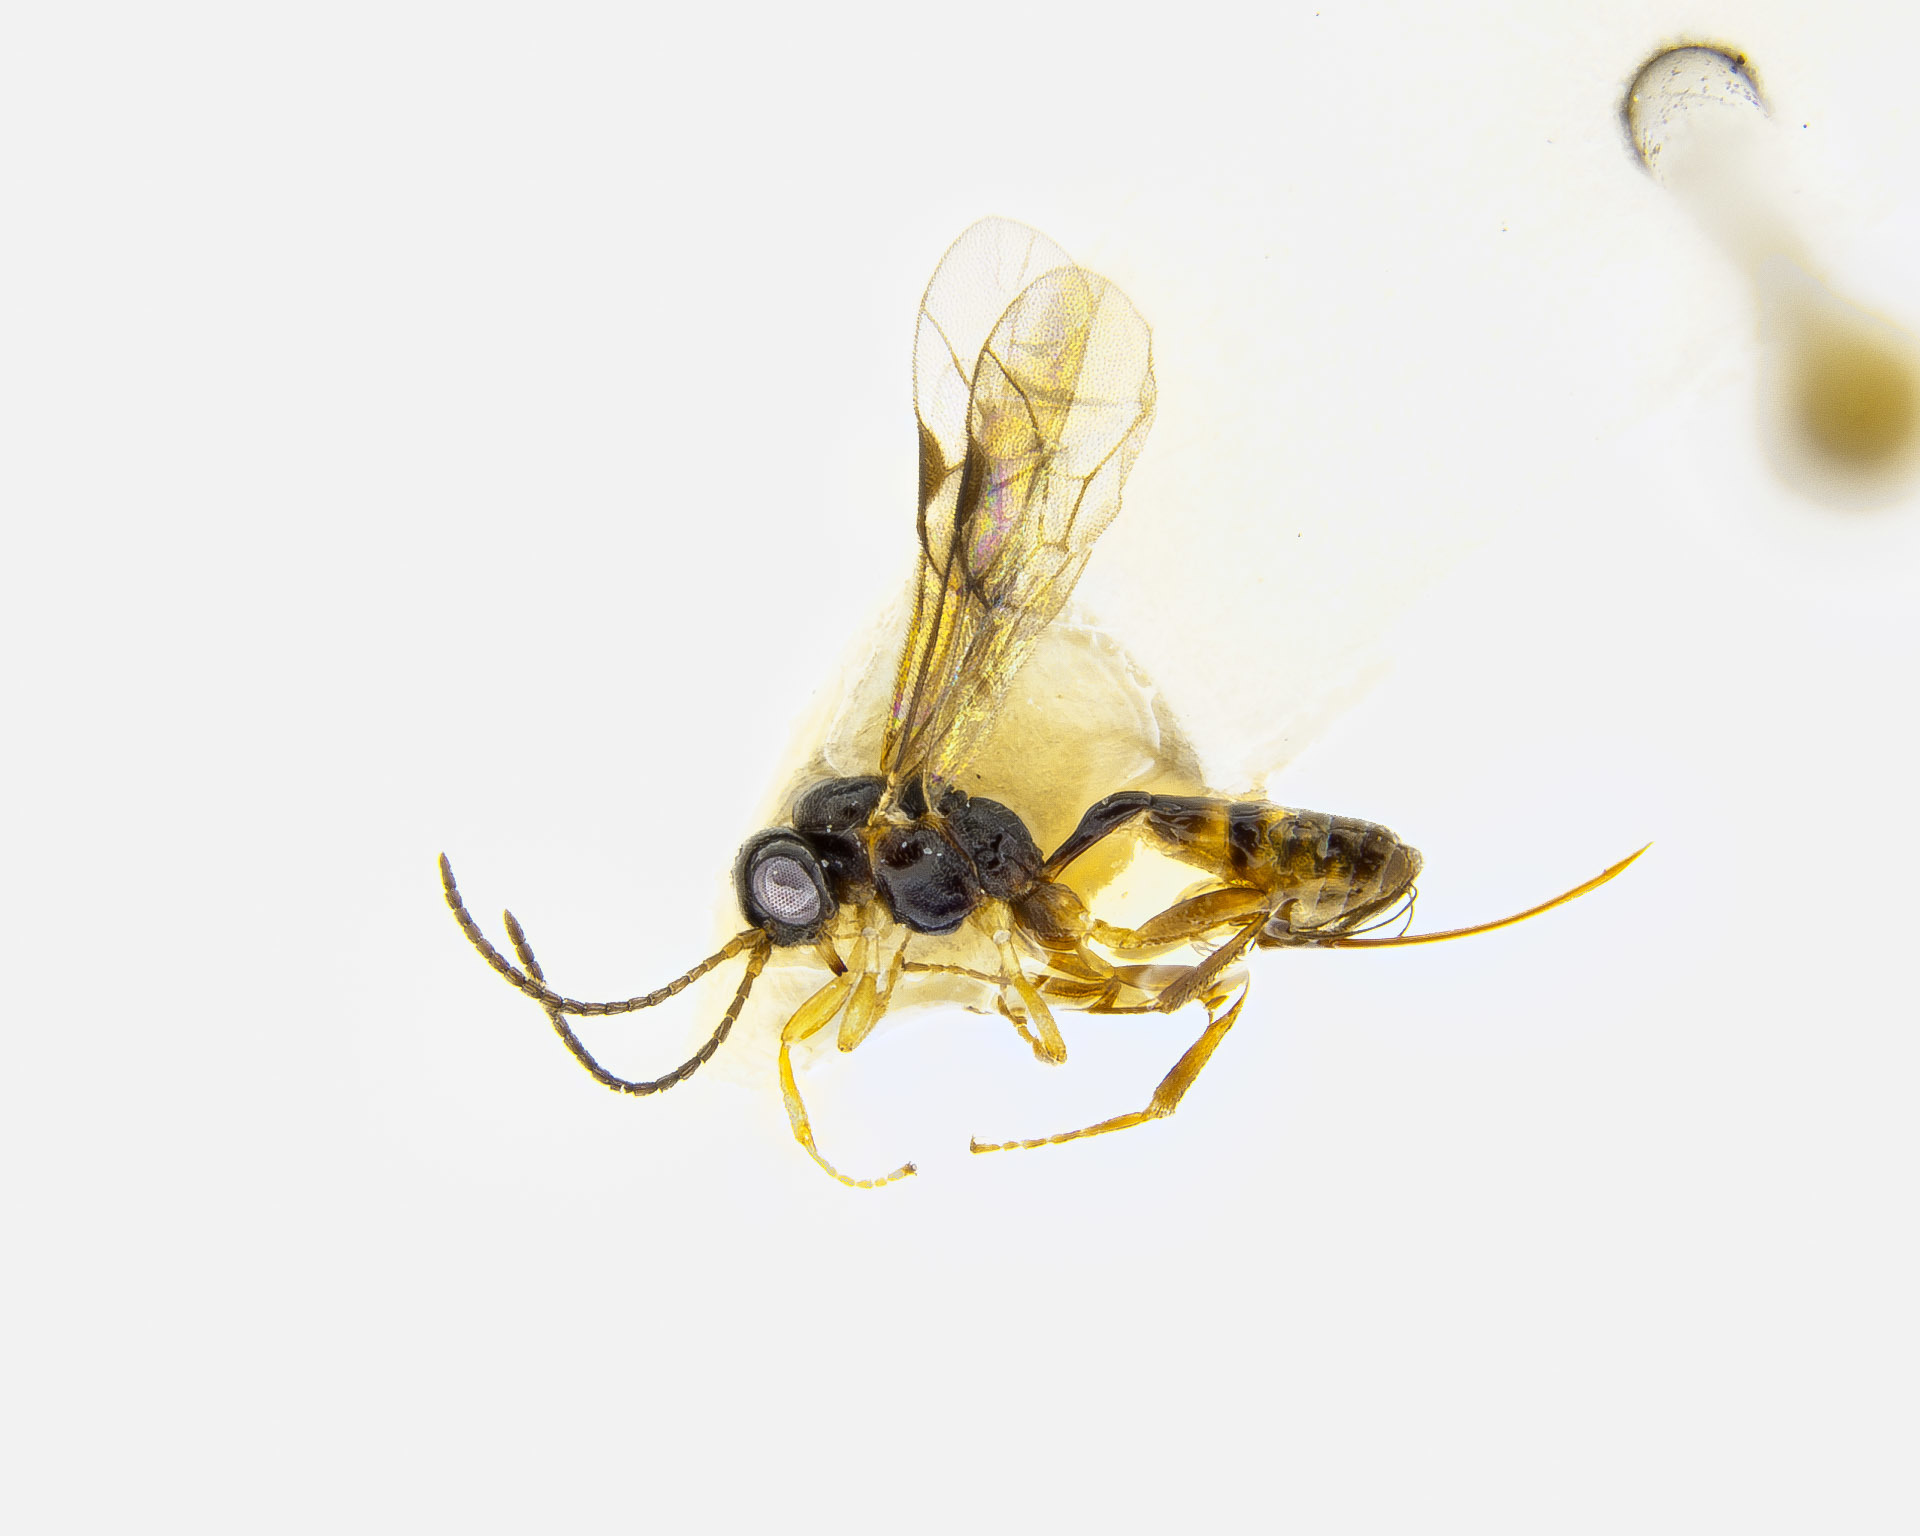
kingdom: Animalia
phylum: Arthropoda
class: Insecta
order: Hymenoptera
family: Ichneumonidae
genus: Barycnellus
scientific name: Barycnellus globosus
